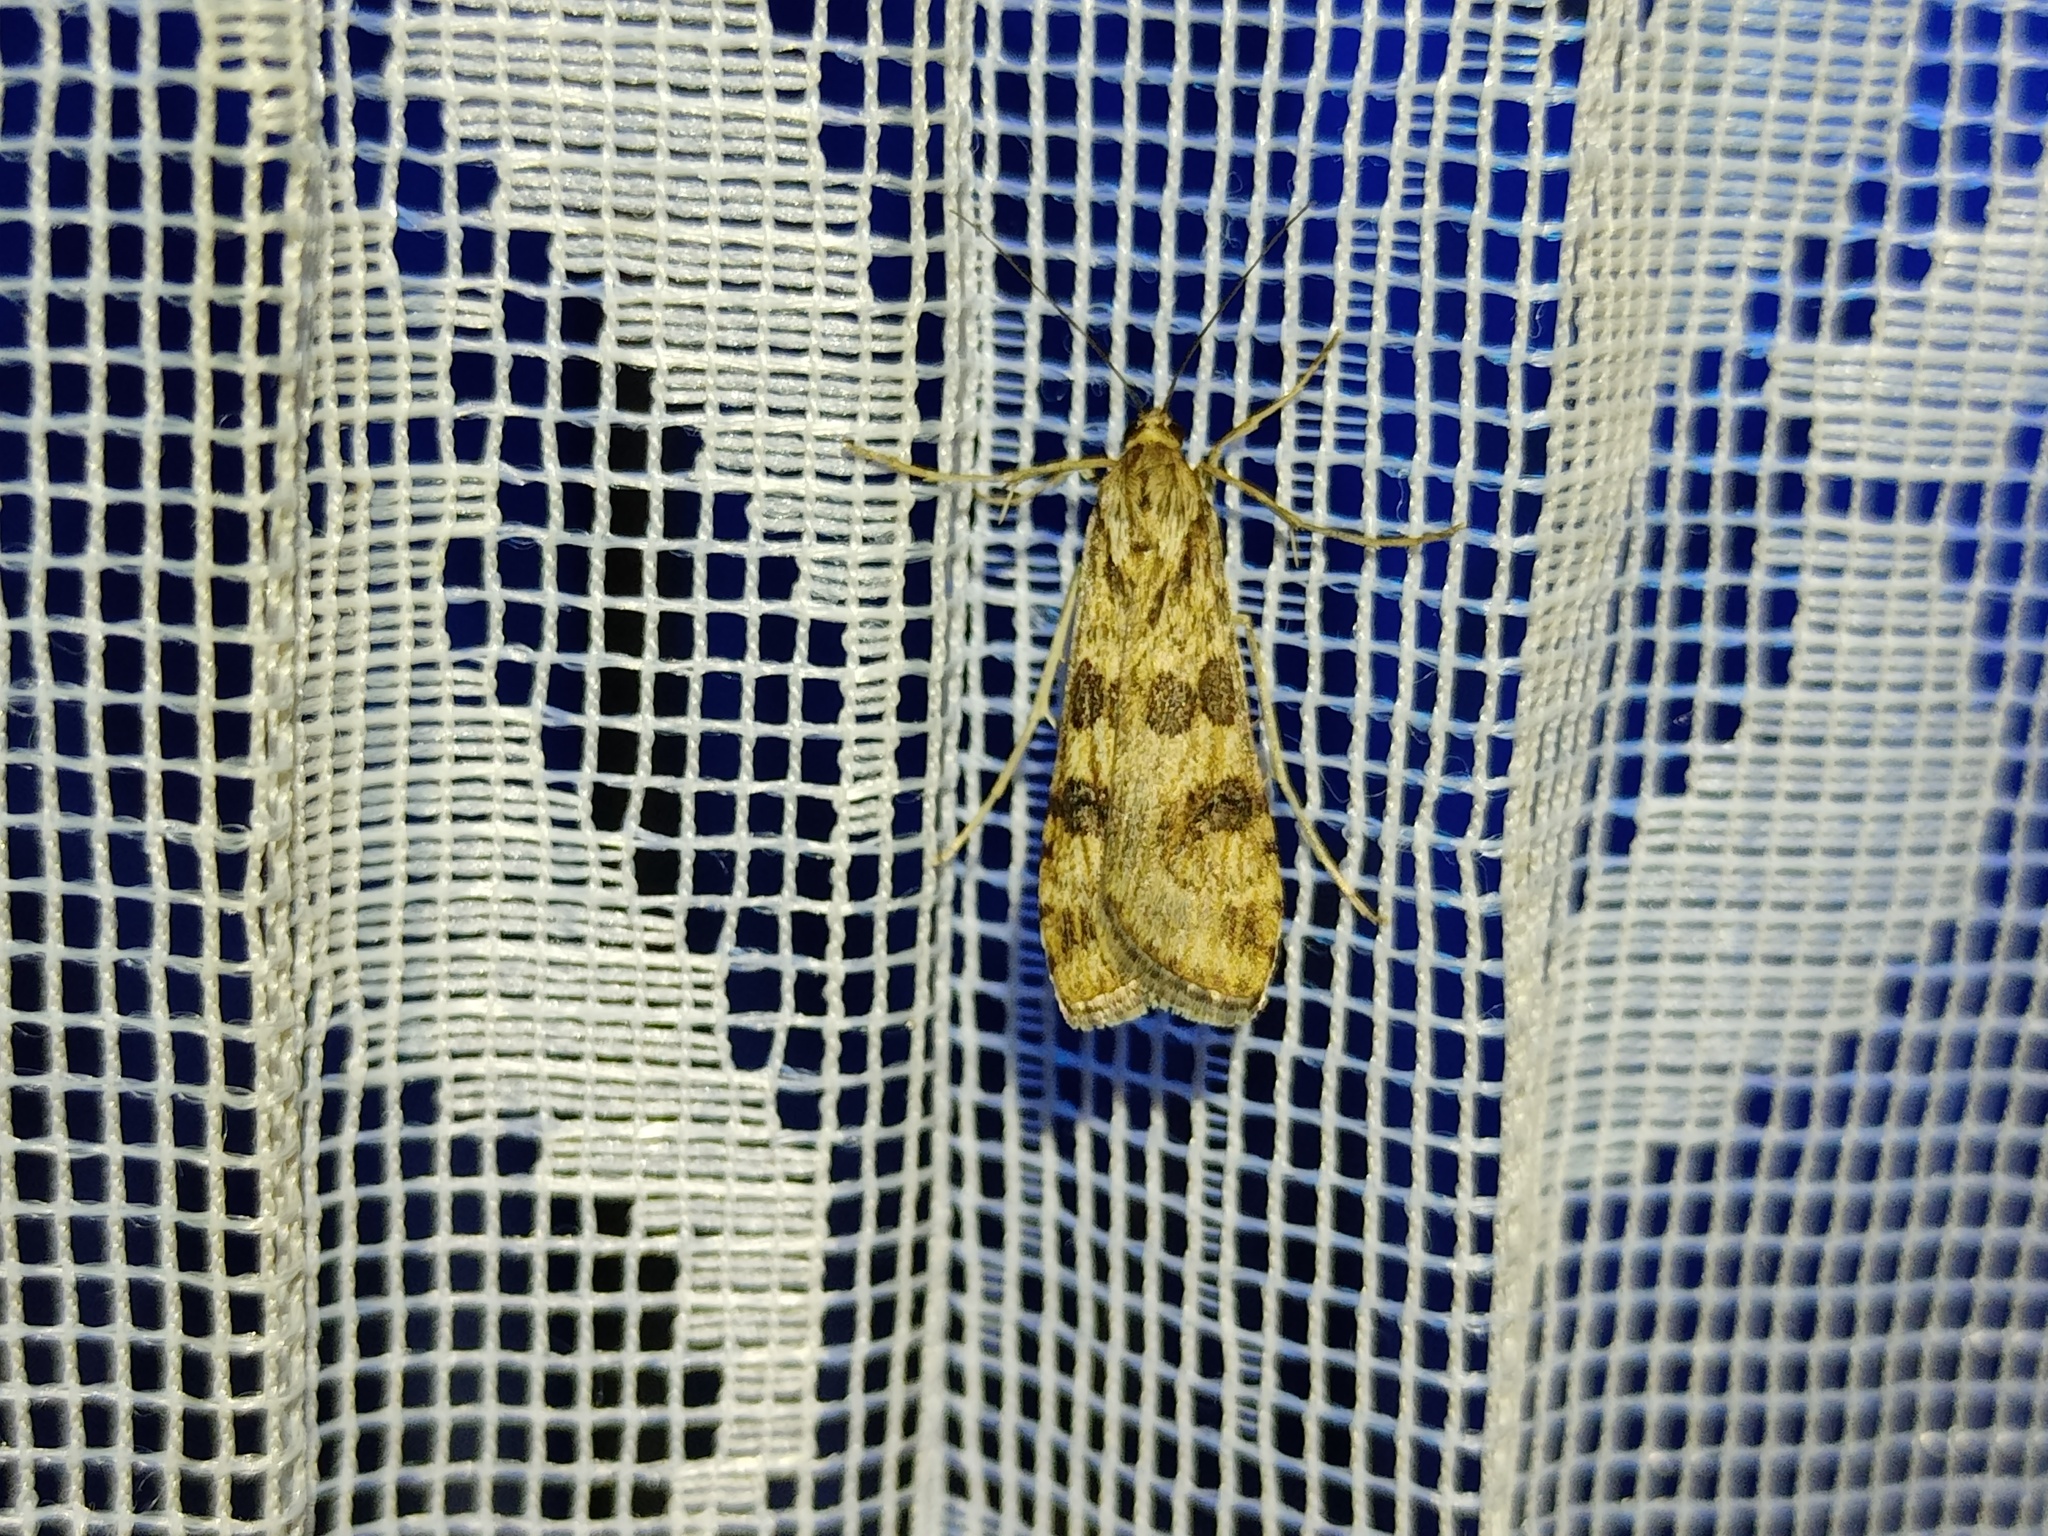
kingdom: Animalia
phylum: Arthropoda
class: Insecta
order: Lepidoptera
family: Crambidae
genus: Nomophila
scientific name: Nomophila noctuella
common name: Rush veneer
